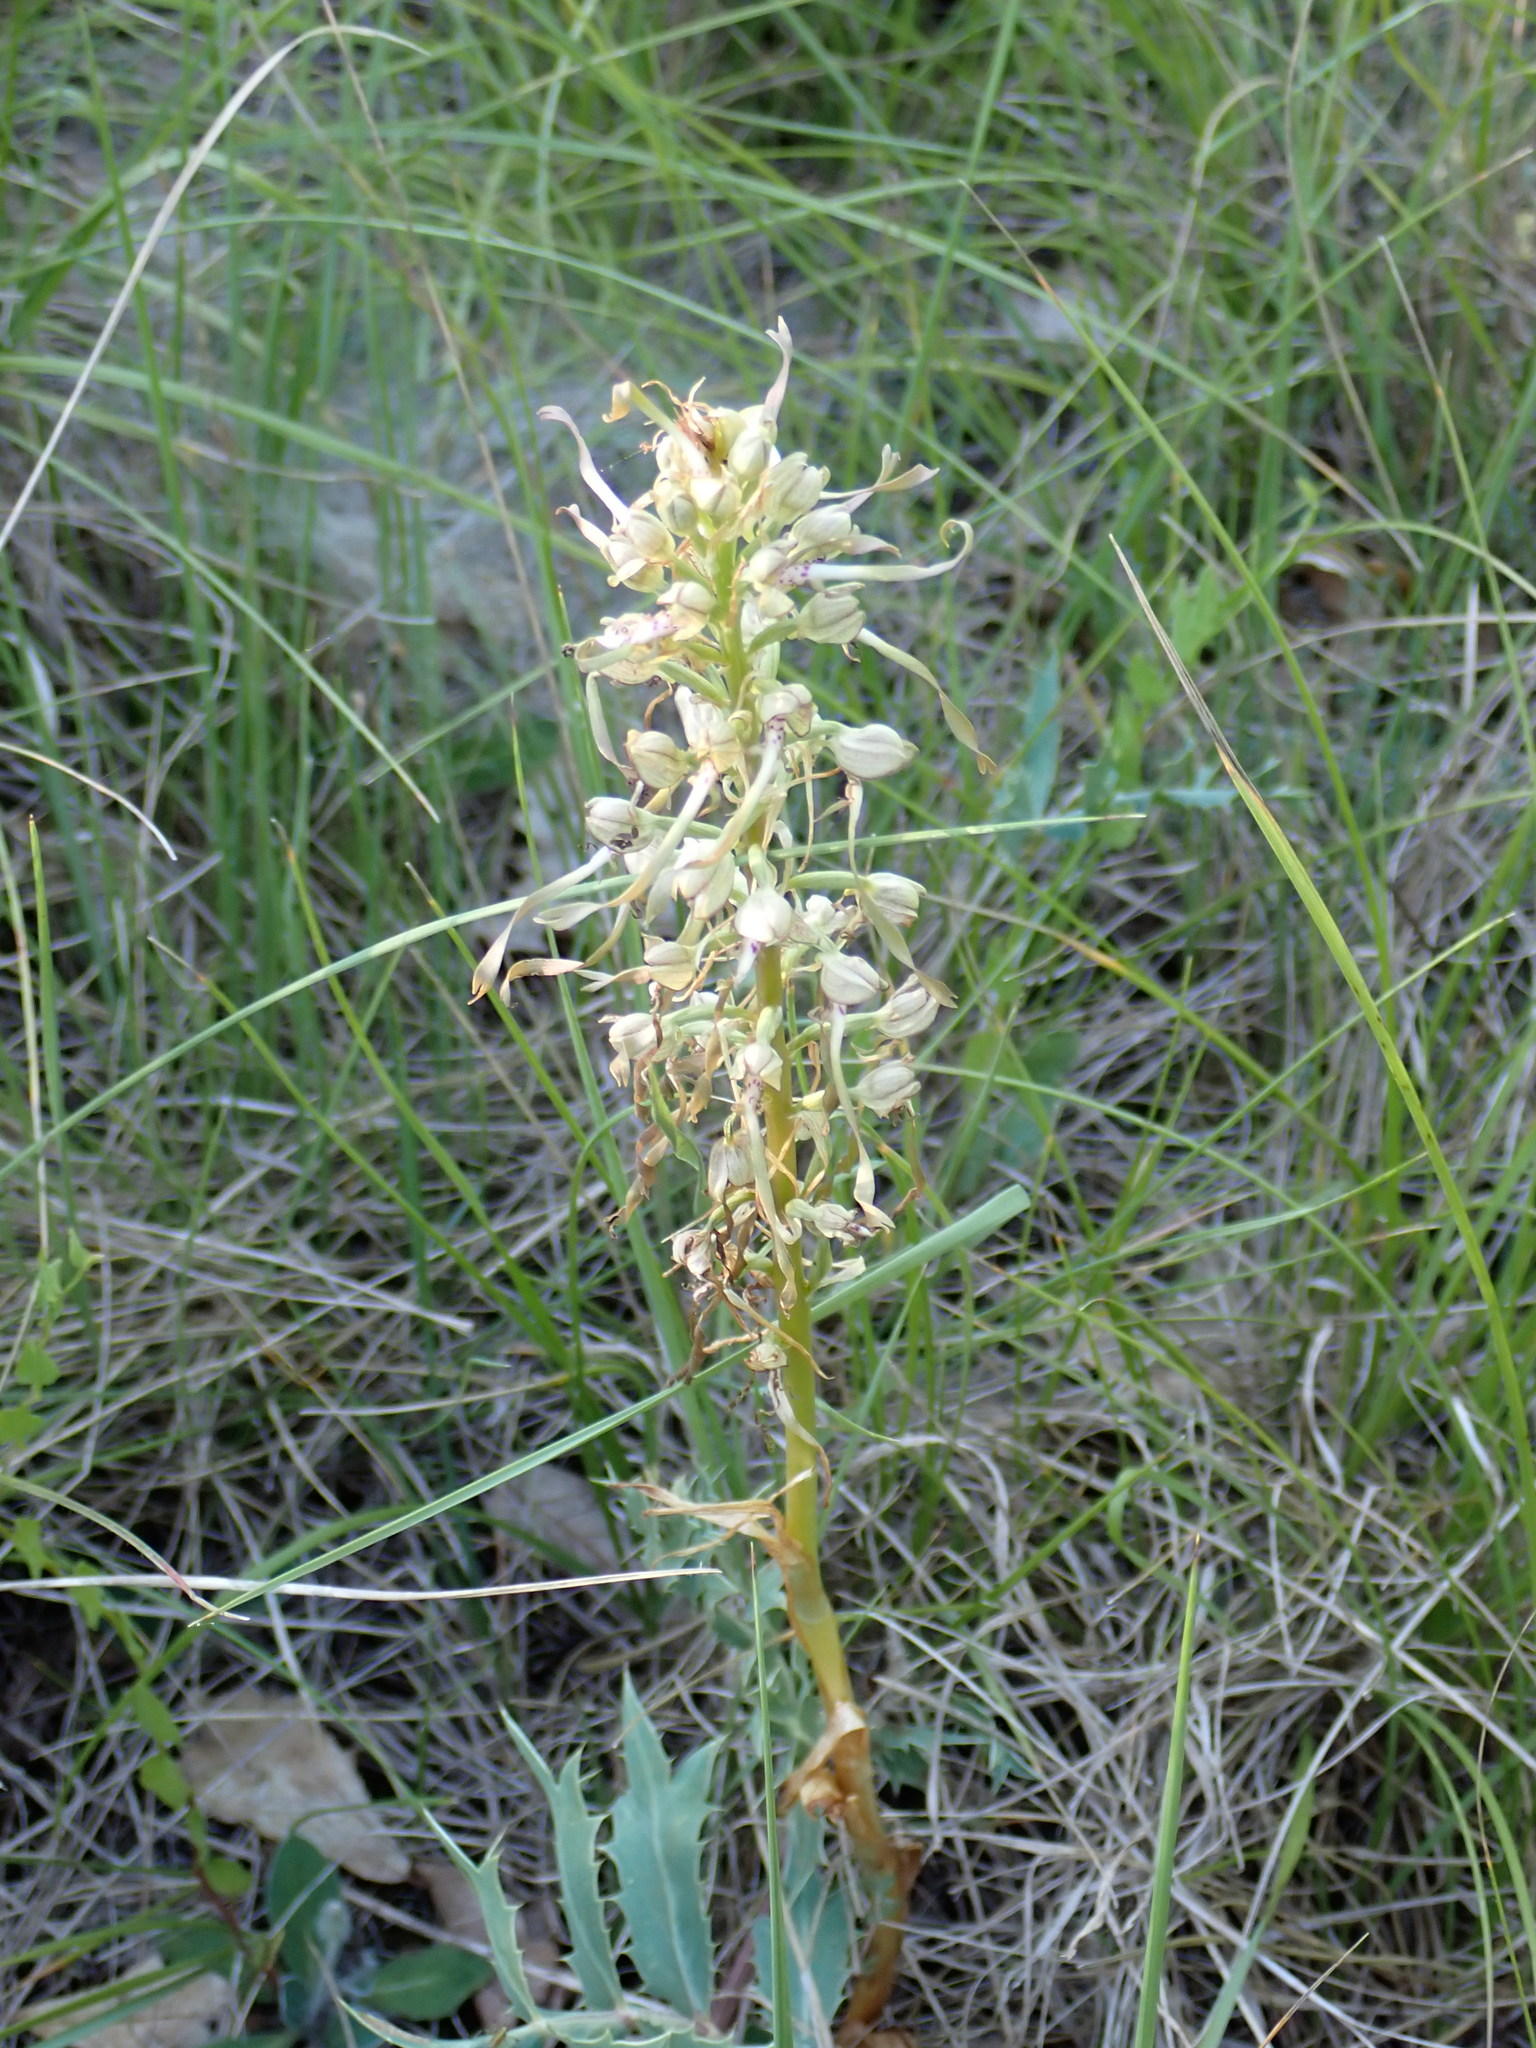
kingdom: Plantae
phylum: Tracheophyta
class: Liliopsida
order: Asparagales
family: Orchidaceae
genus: Himantoglossum
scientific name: Himantoglossum hircinum
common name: Lizard orchid
